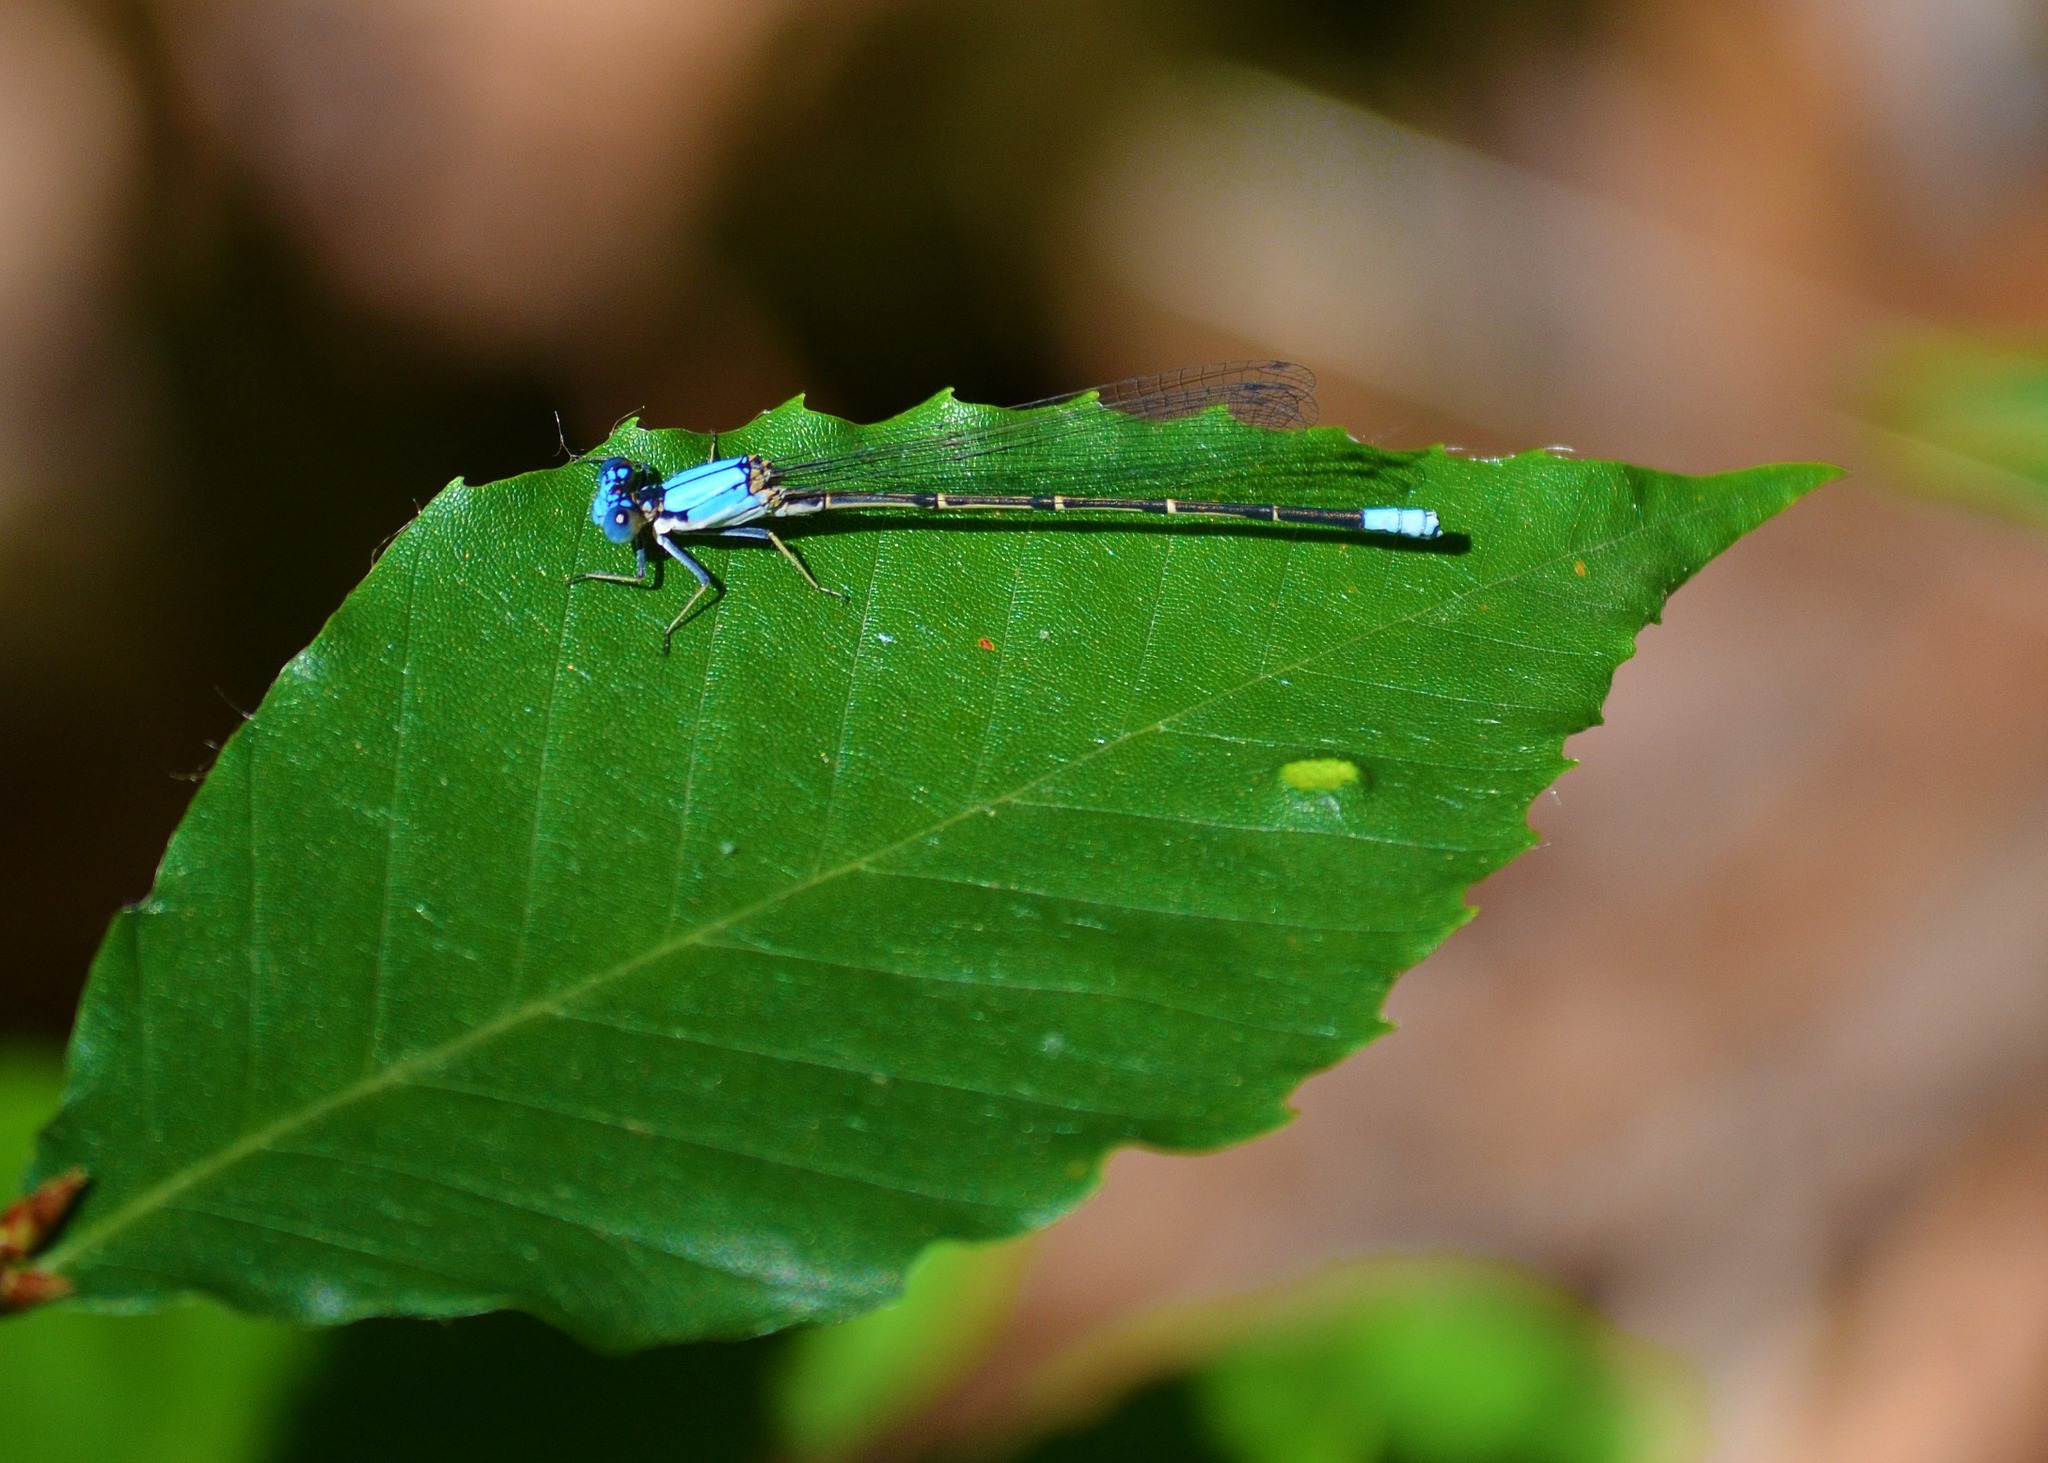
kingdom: Animalia
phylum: Arthropoda
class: Insecta
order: Odonata
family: Coenagrionidae
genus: Argia
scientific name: Argia apicalis
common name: Blue-fronted dancer
